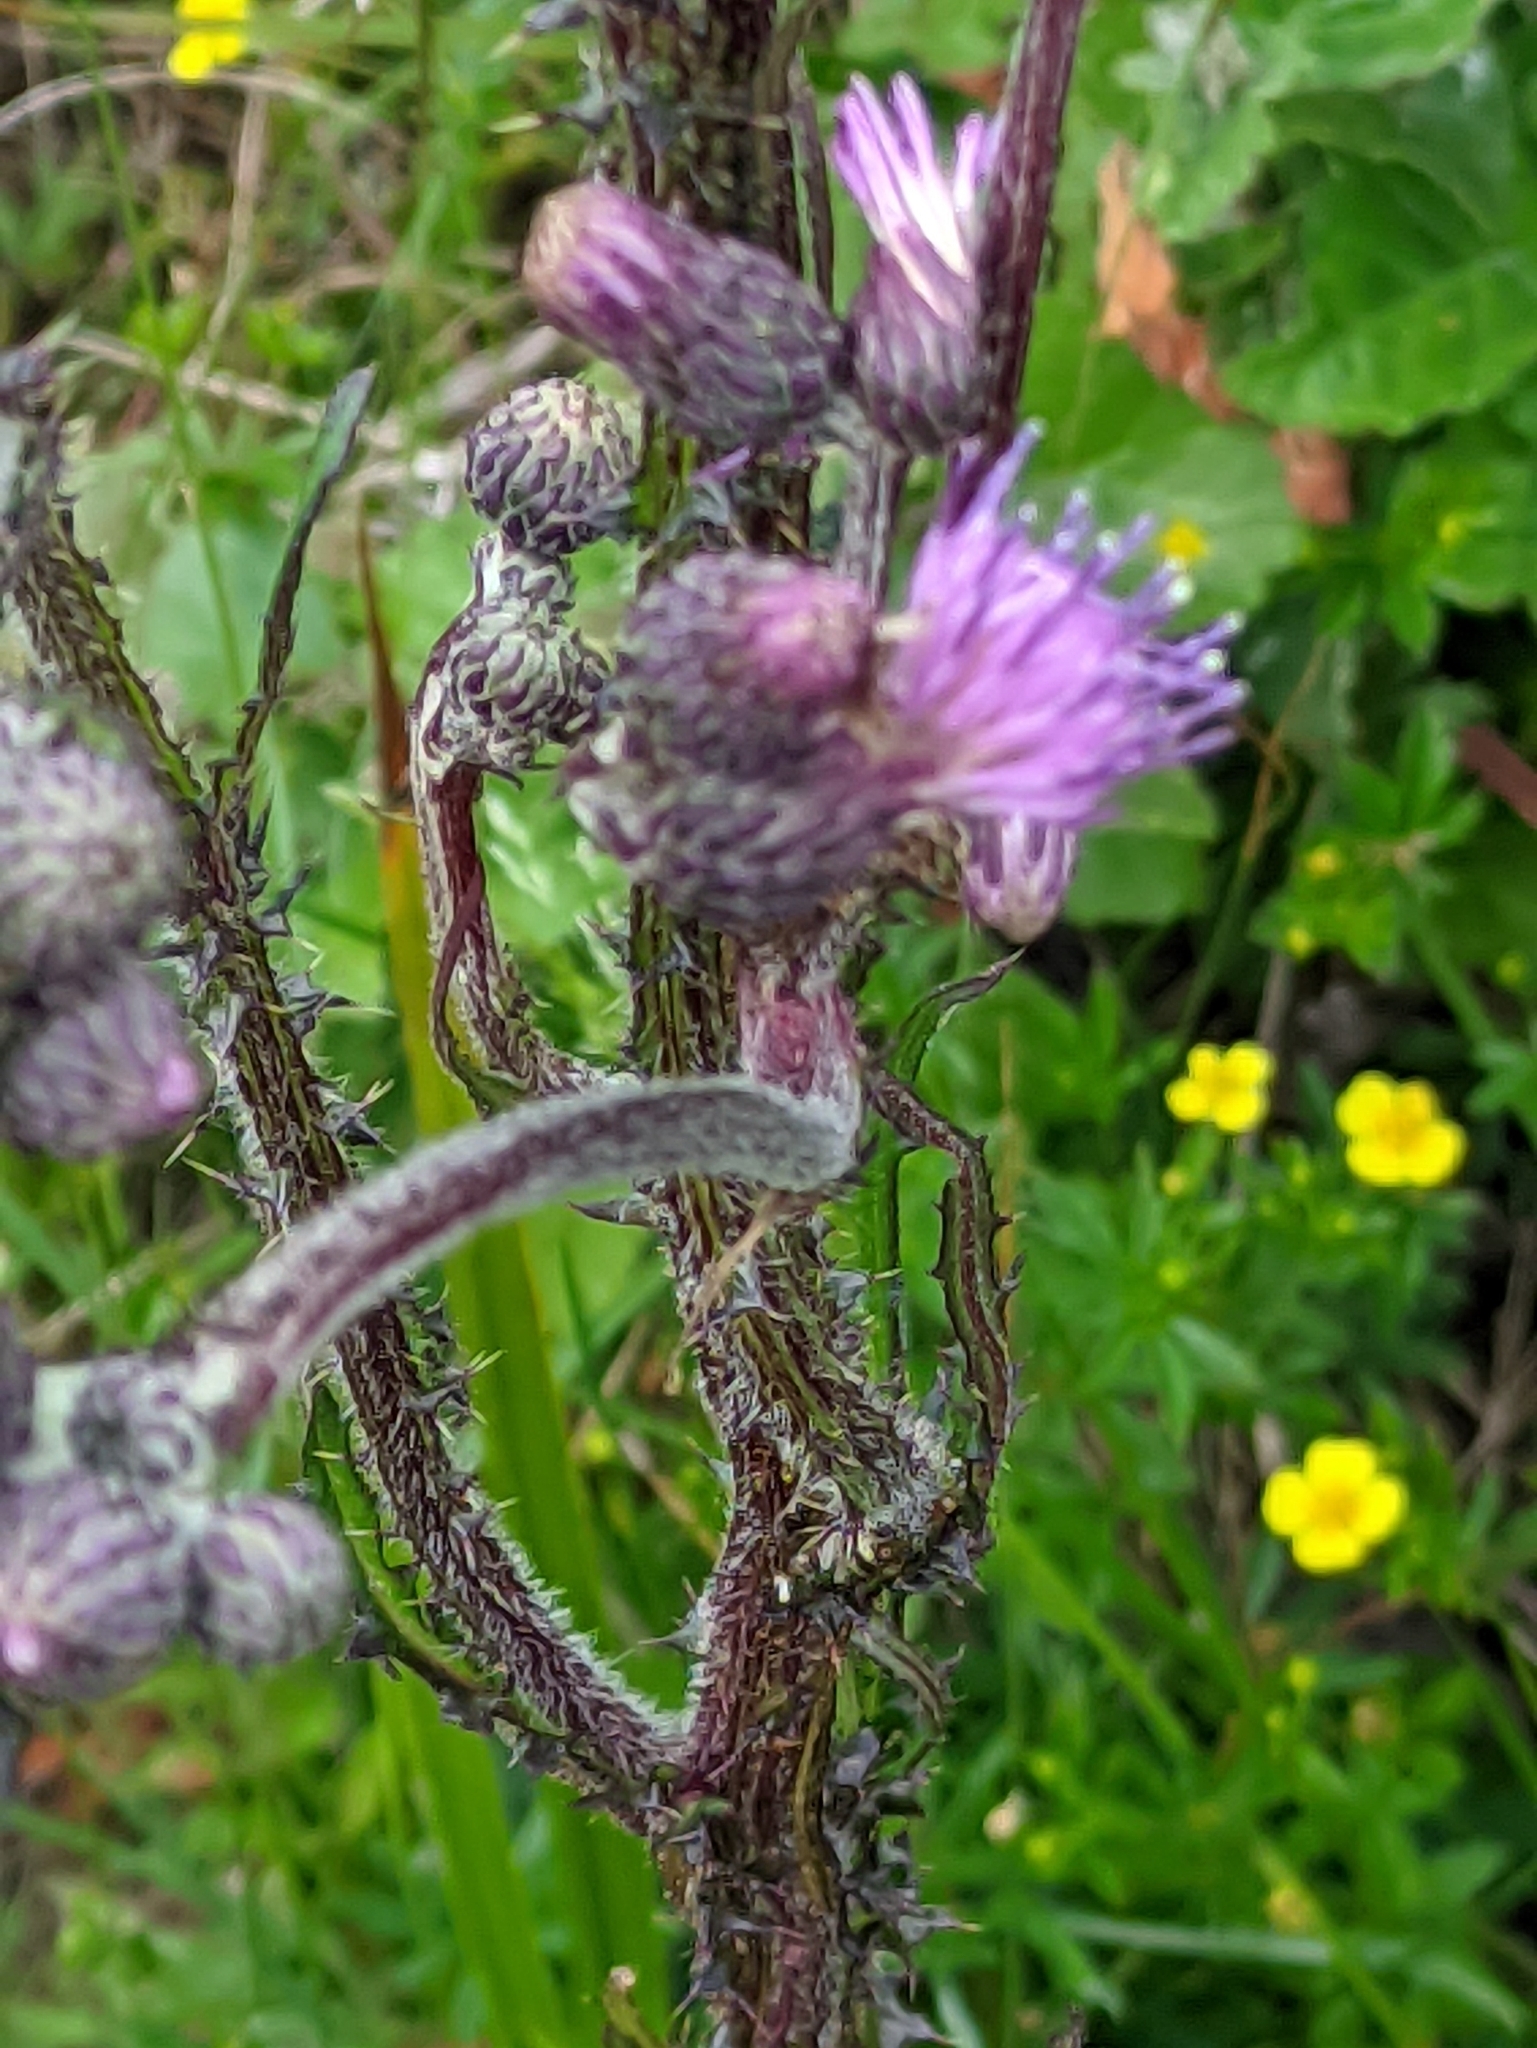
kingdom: Plantae
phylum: Tracheophyta
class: Magnoliopsida
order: Asterales
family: Asteraceae
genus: Cirsium
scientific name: Cirsium palustre
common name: Marsh thistle
